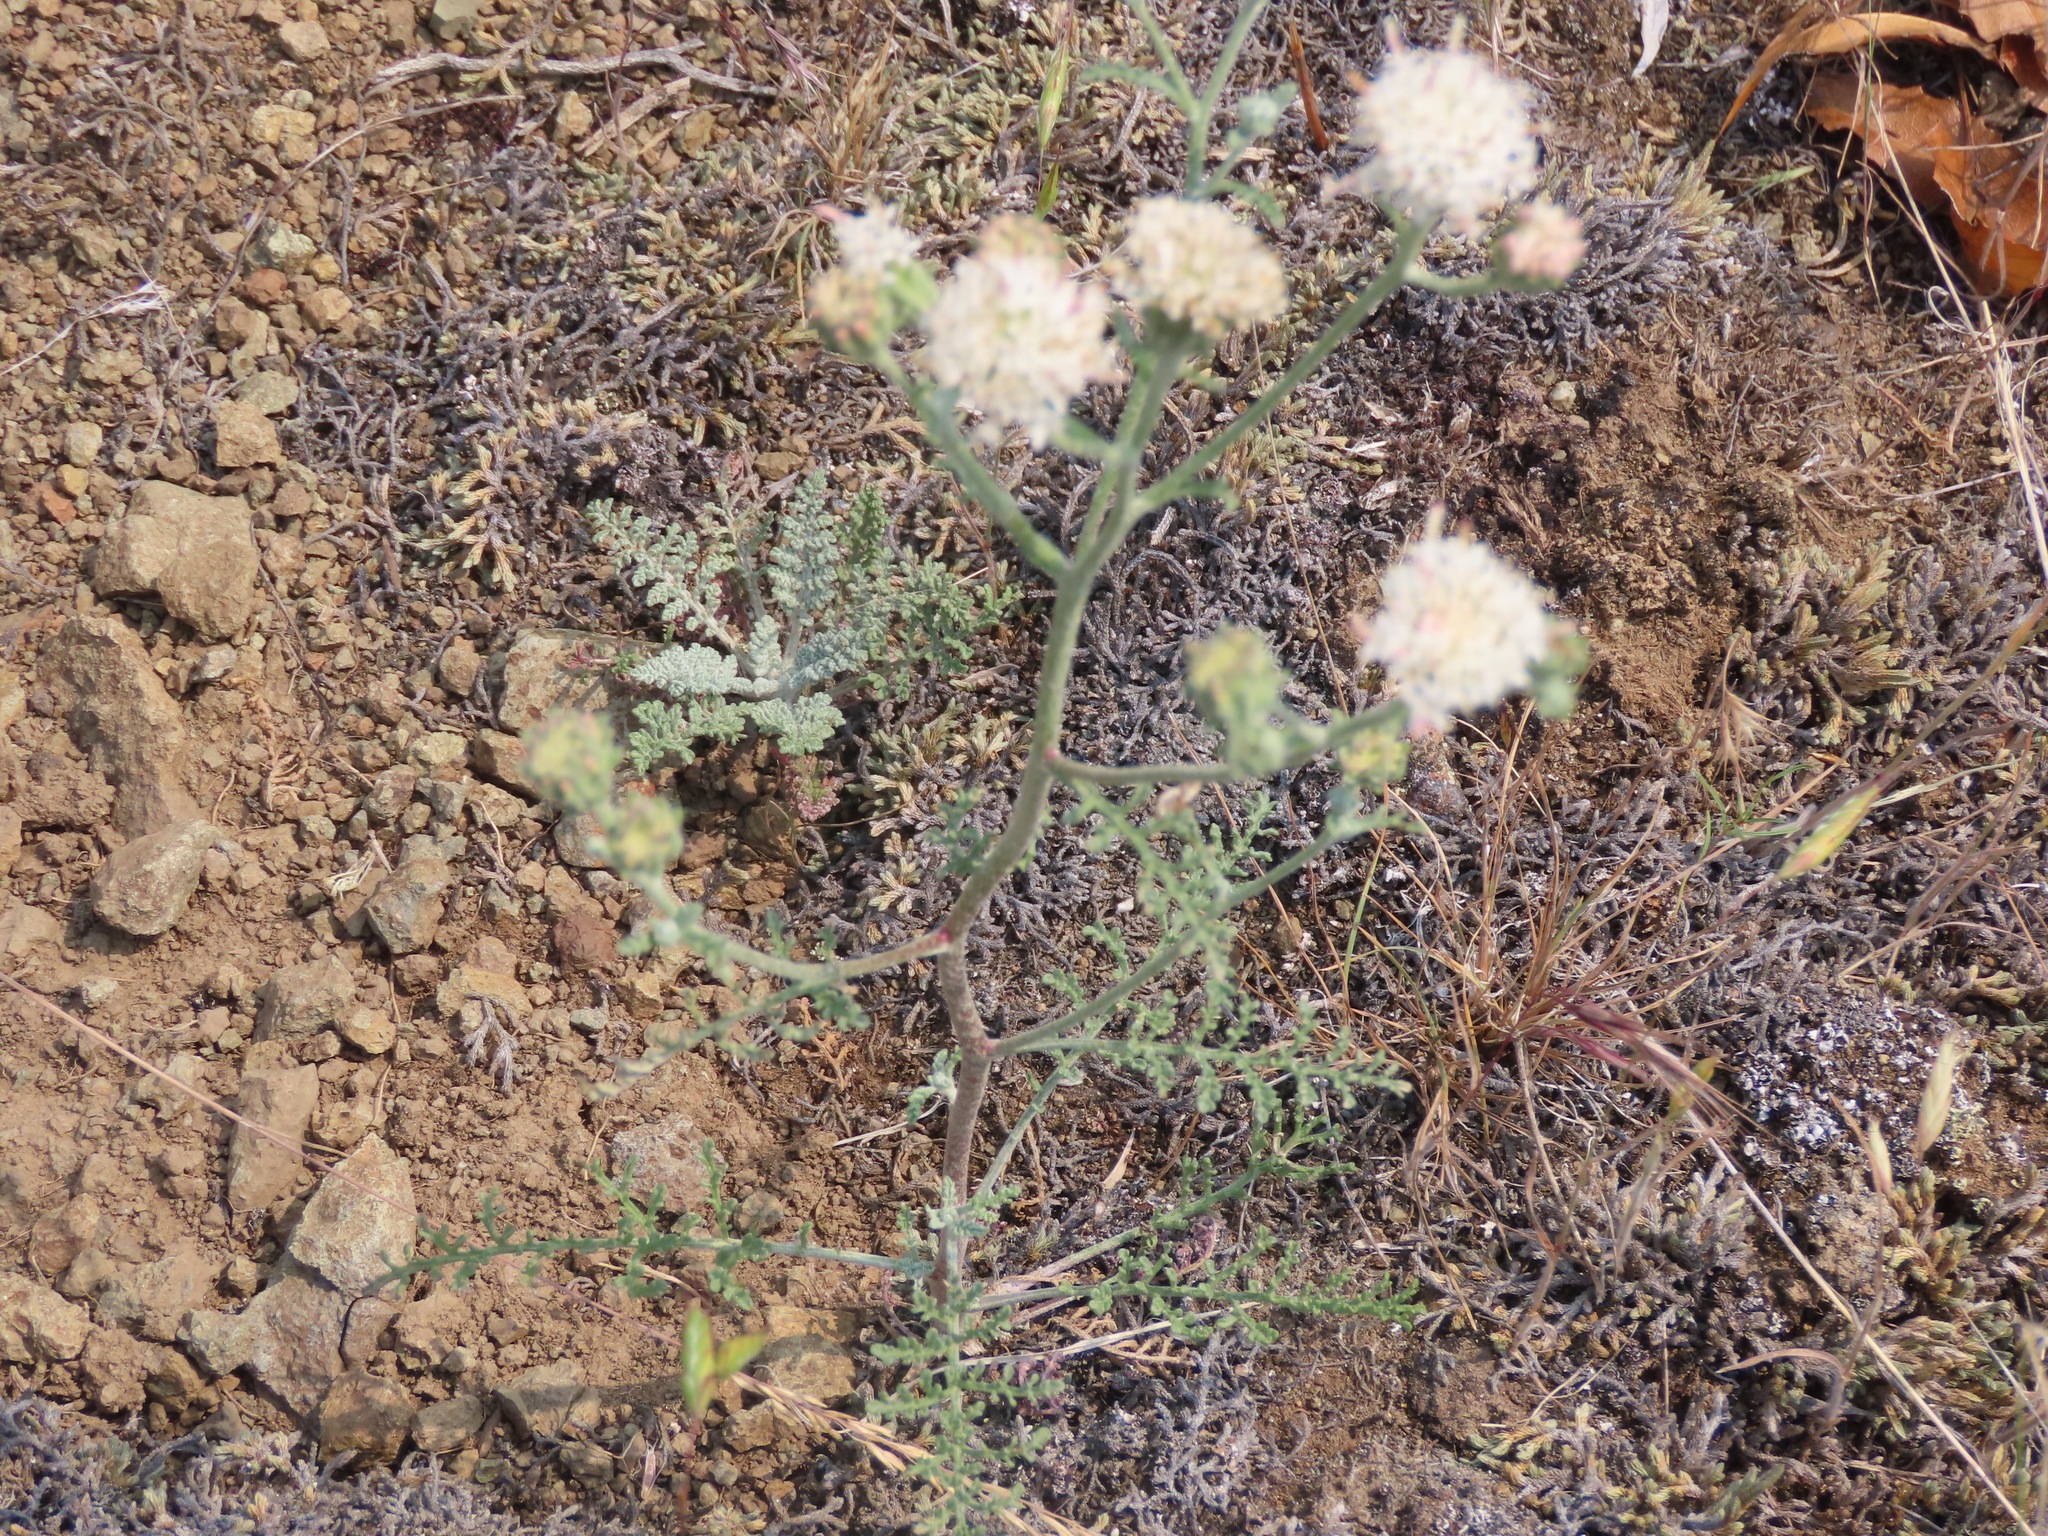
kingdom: Plantae
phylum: Tracheophyta
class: Magnoliopsida
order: Asterales
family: Asteraceae
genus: Chaenactis
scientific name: Chaenactis douglasii
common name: Hoary pincushion
